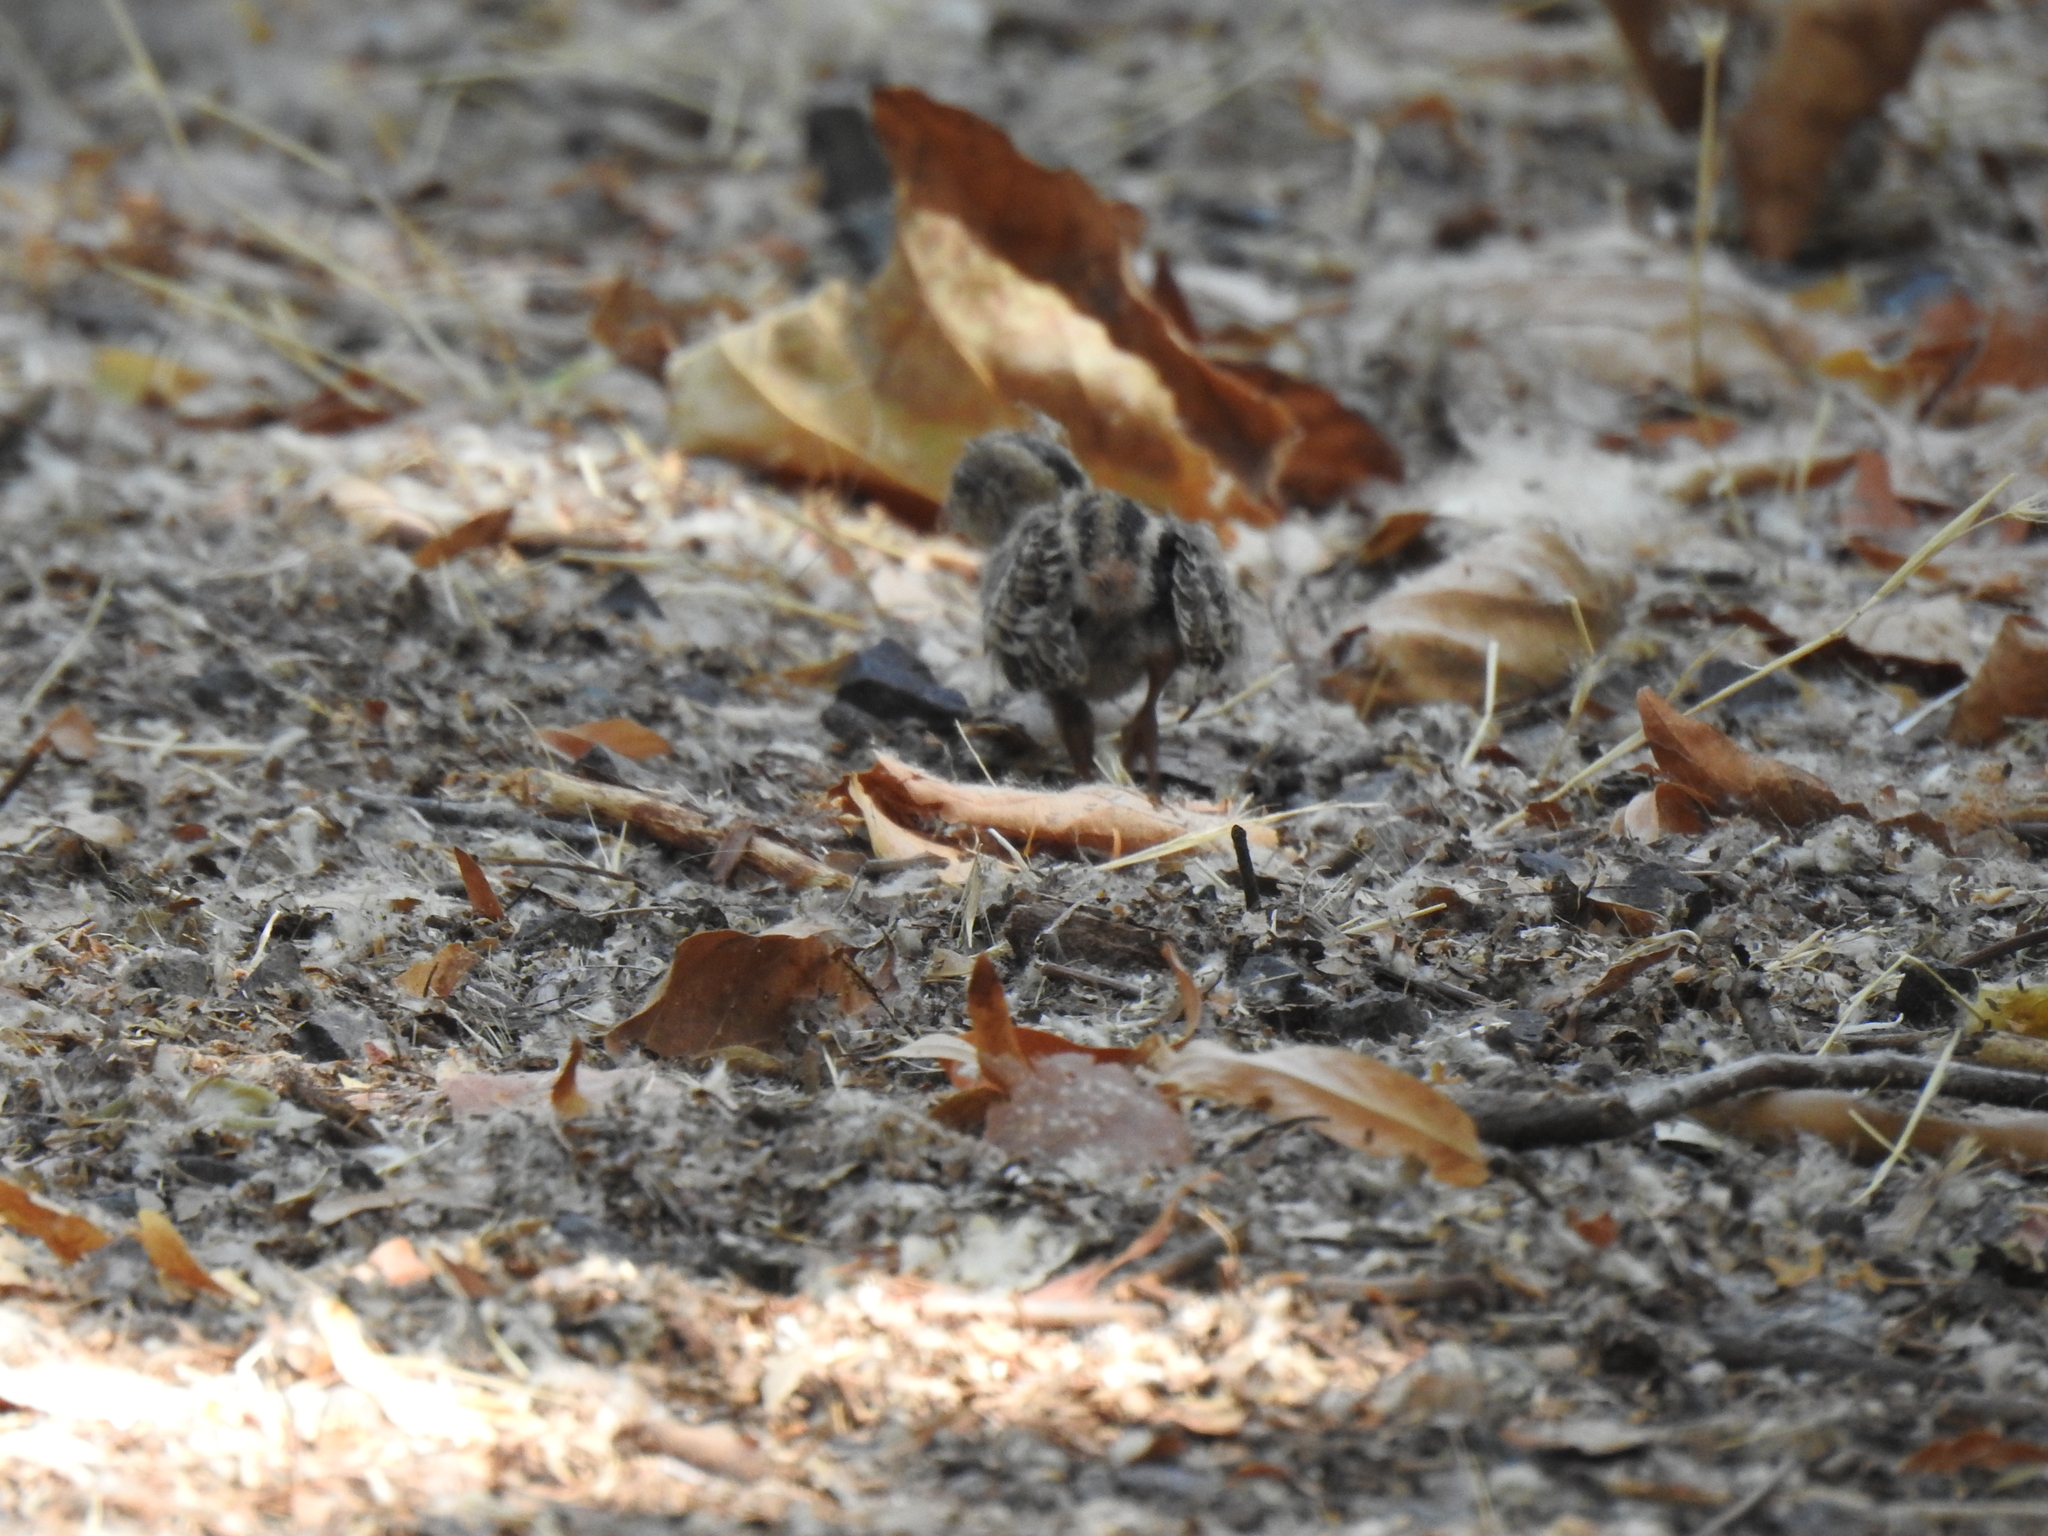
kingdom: Animalia
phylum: Chordata
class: Aves
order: Galliformes
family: Odontophoridae
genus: Callipepla
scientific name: Callipepla californica
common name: California quail
